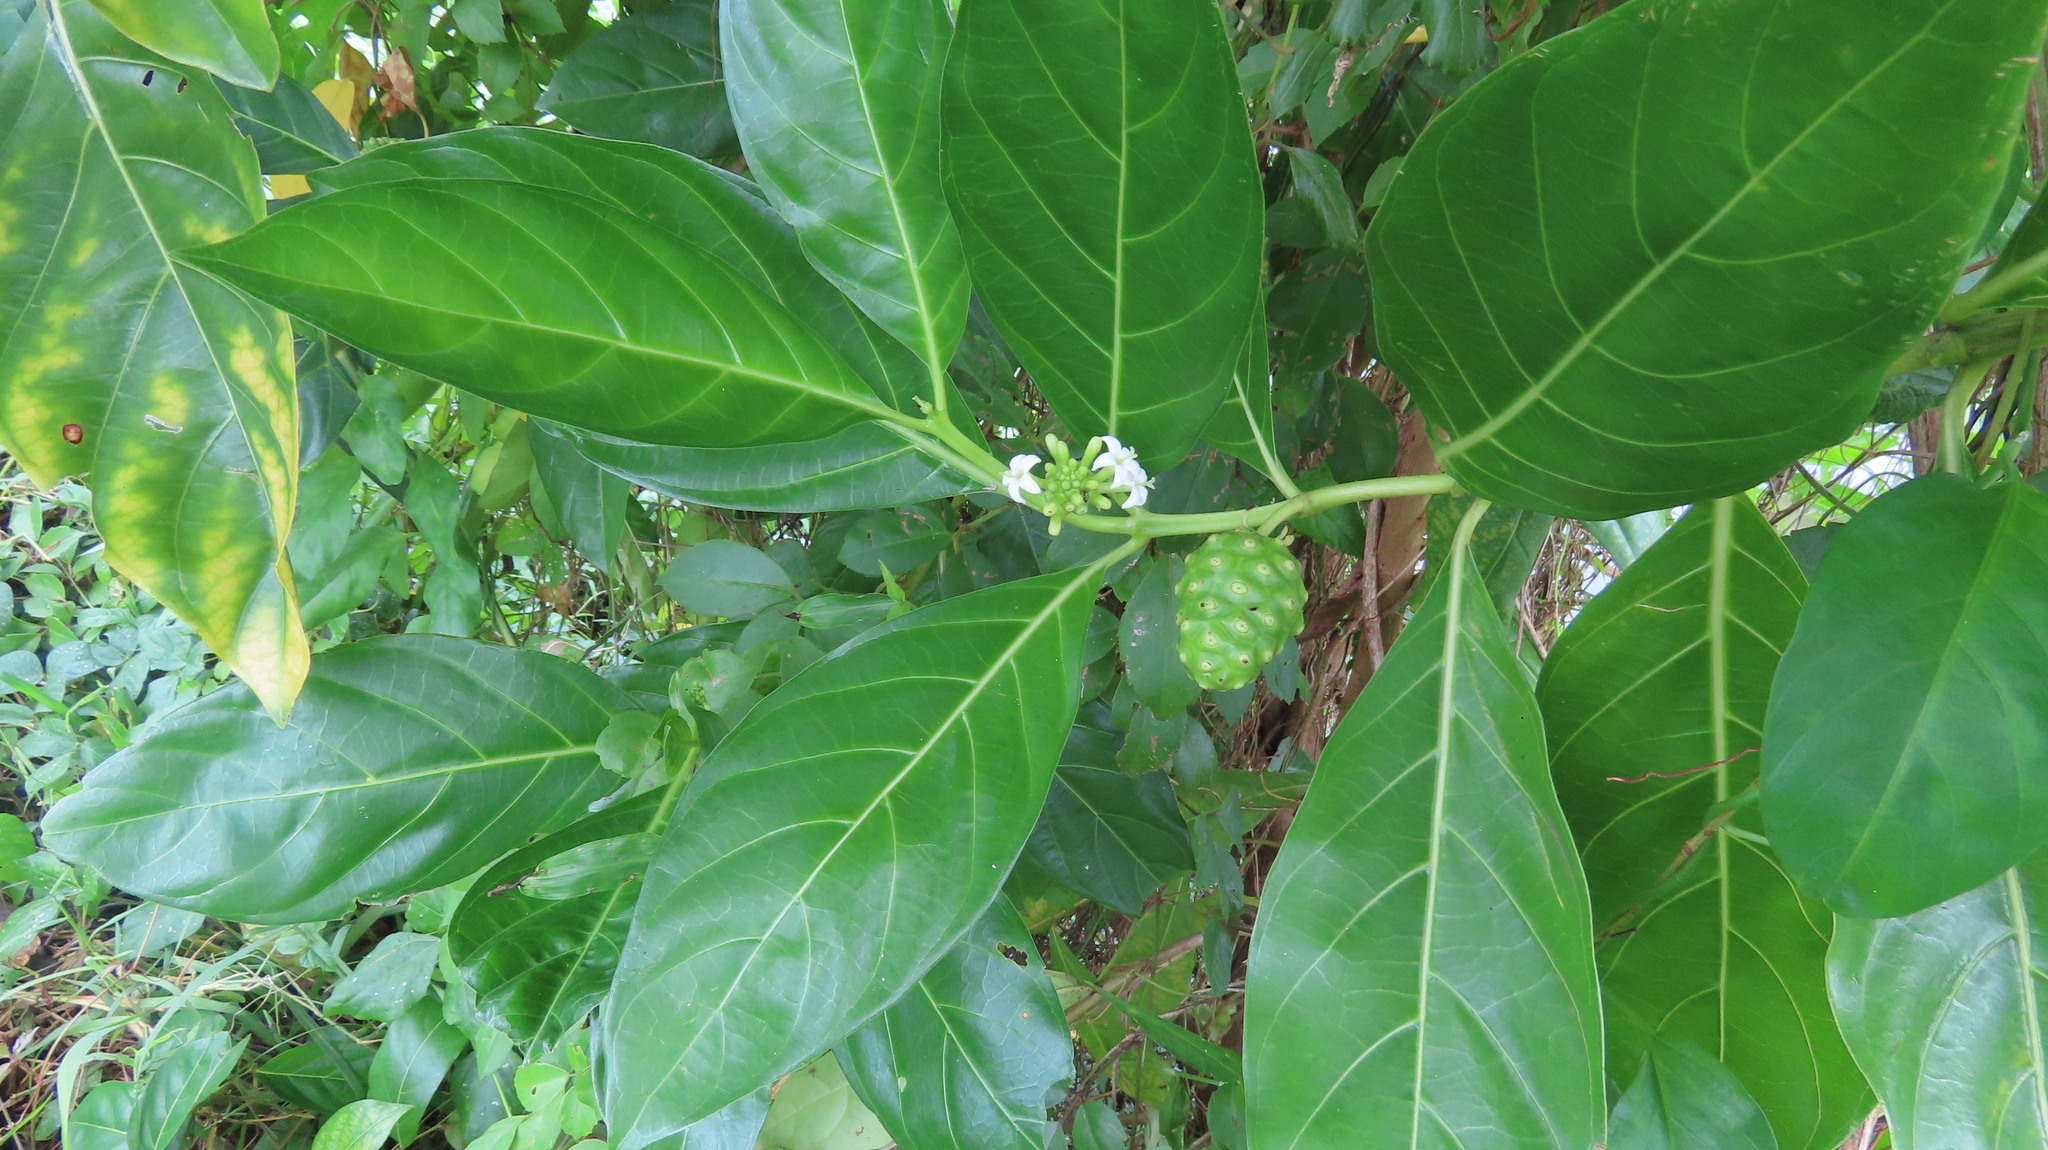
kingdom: Plantae
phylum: Tracheophyta
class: Magnoliopsida
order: Gentianales
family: Rubiaceae
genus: Morinda
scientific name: Morinda citrifolia
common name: Indian-mulberry
